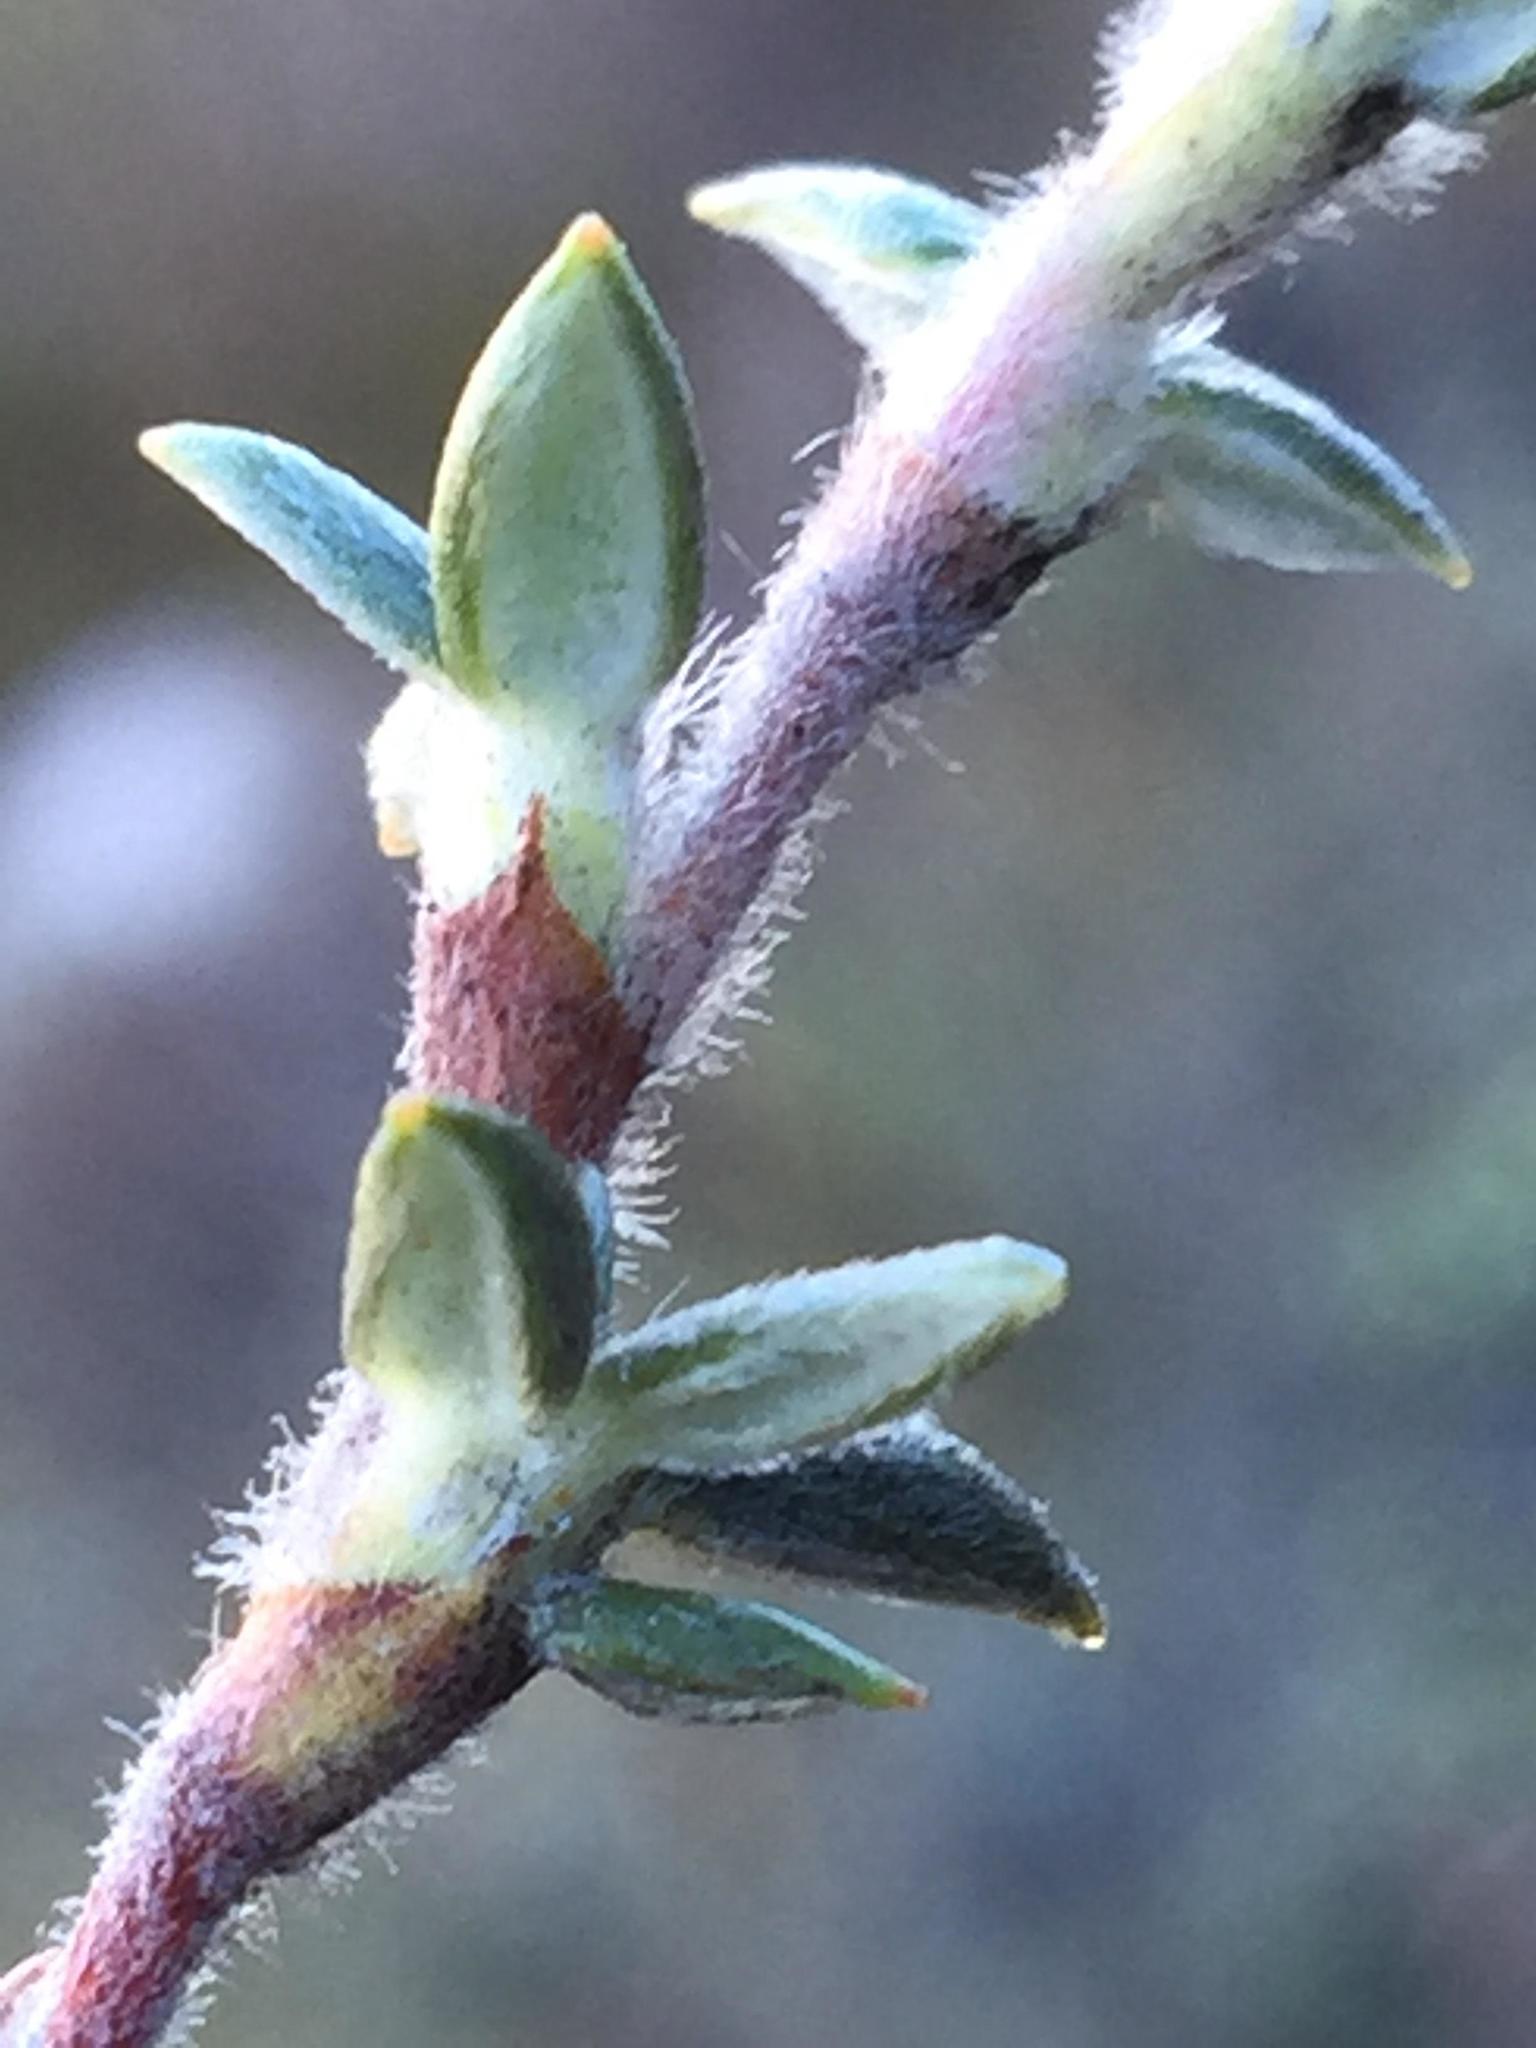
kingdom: Plantae
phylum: Tracheophyta
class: Magnoliopsida
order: Rosales
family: Rosaceae
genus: Cliffortia
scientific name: Cliffortia dispar
